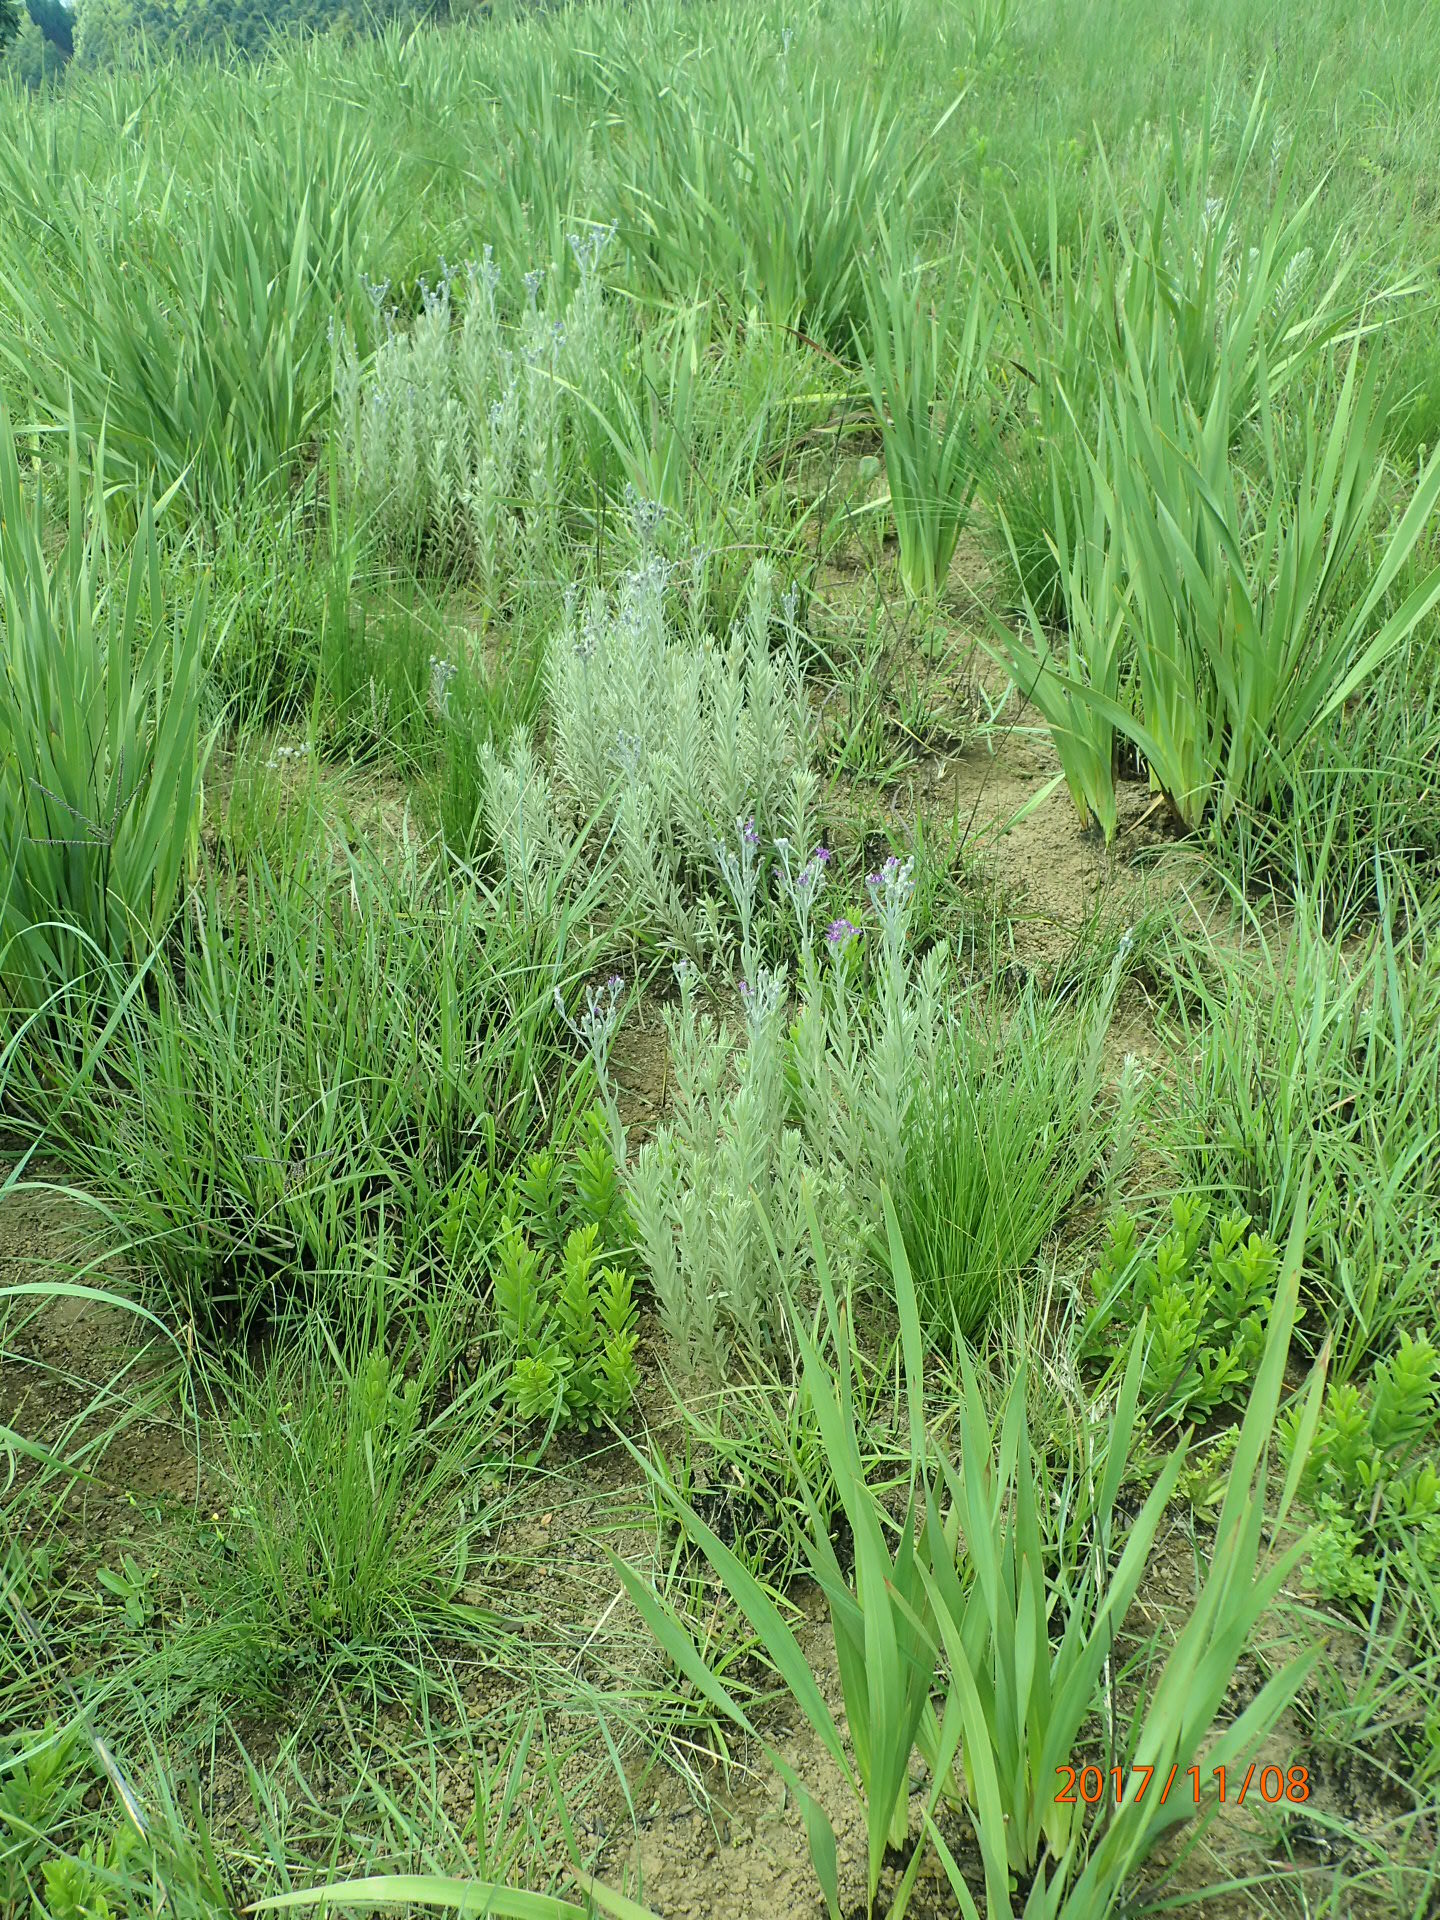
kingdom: Plantae
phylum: Tracheophyta
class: Magnoliopsida
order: Asterales
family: Asteraceae
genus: Hilliardiella
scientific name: Hilliardiella aristata
